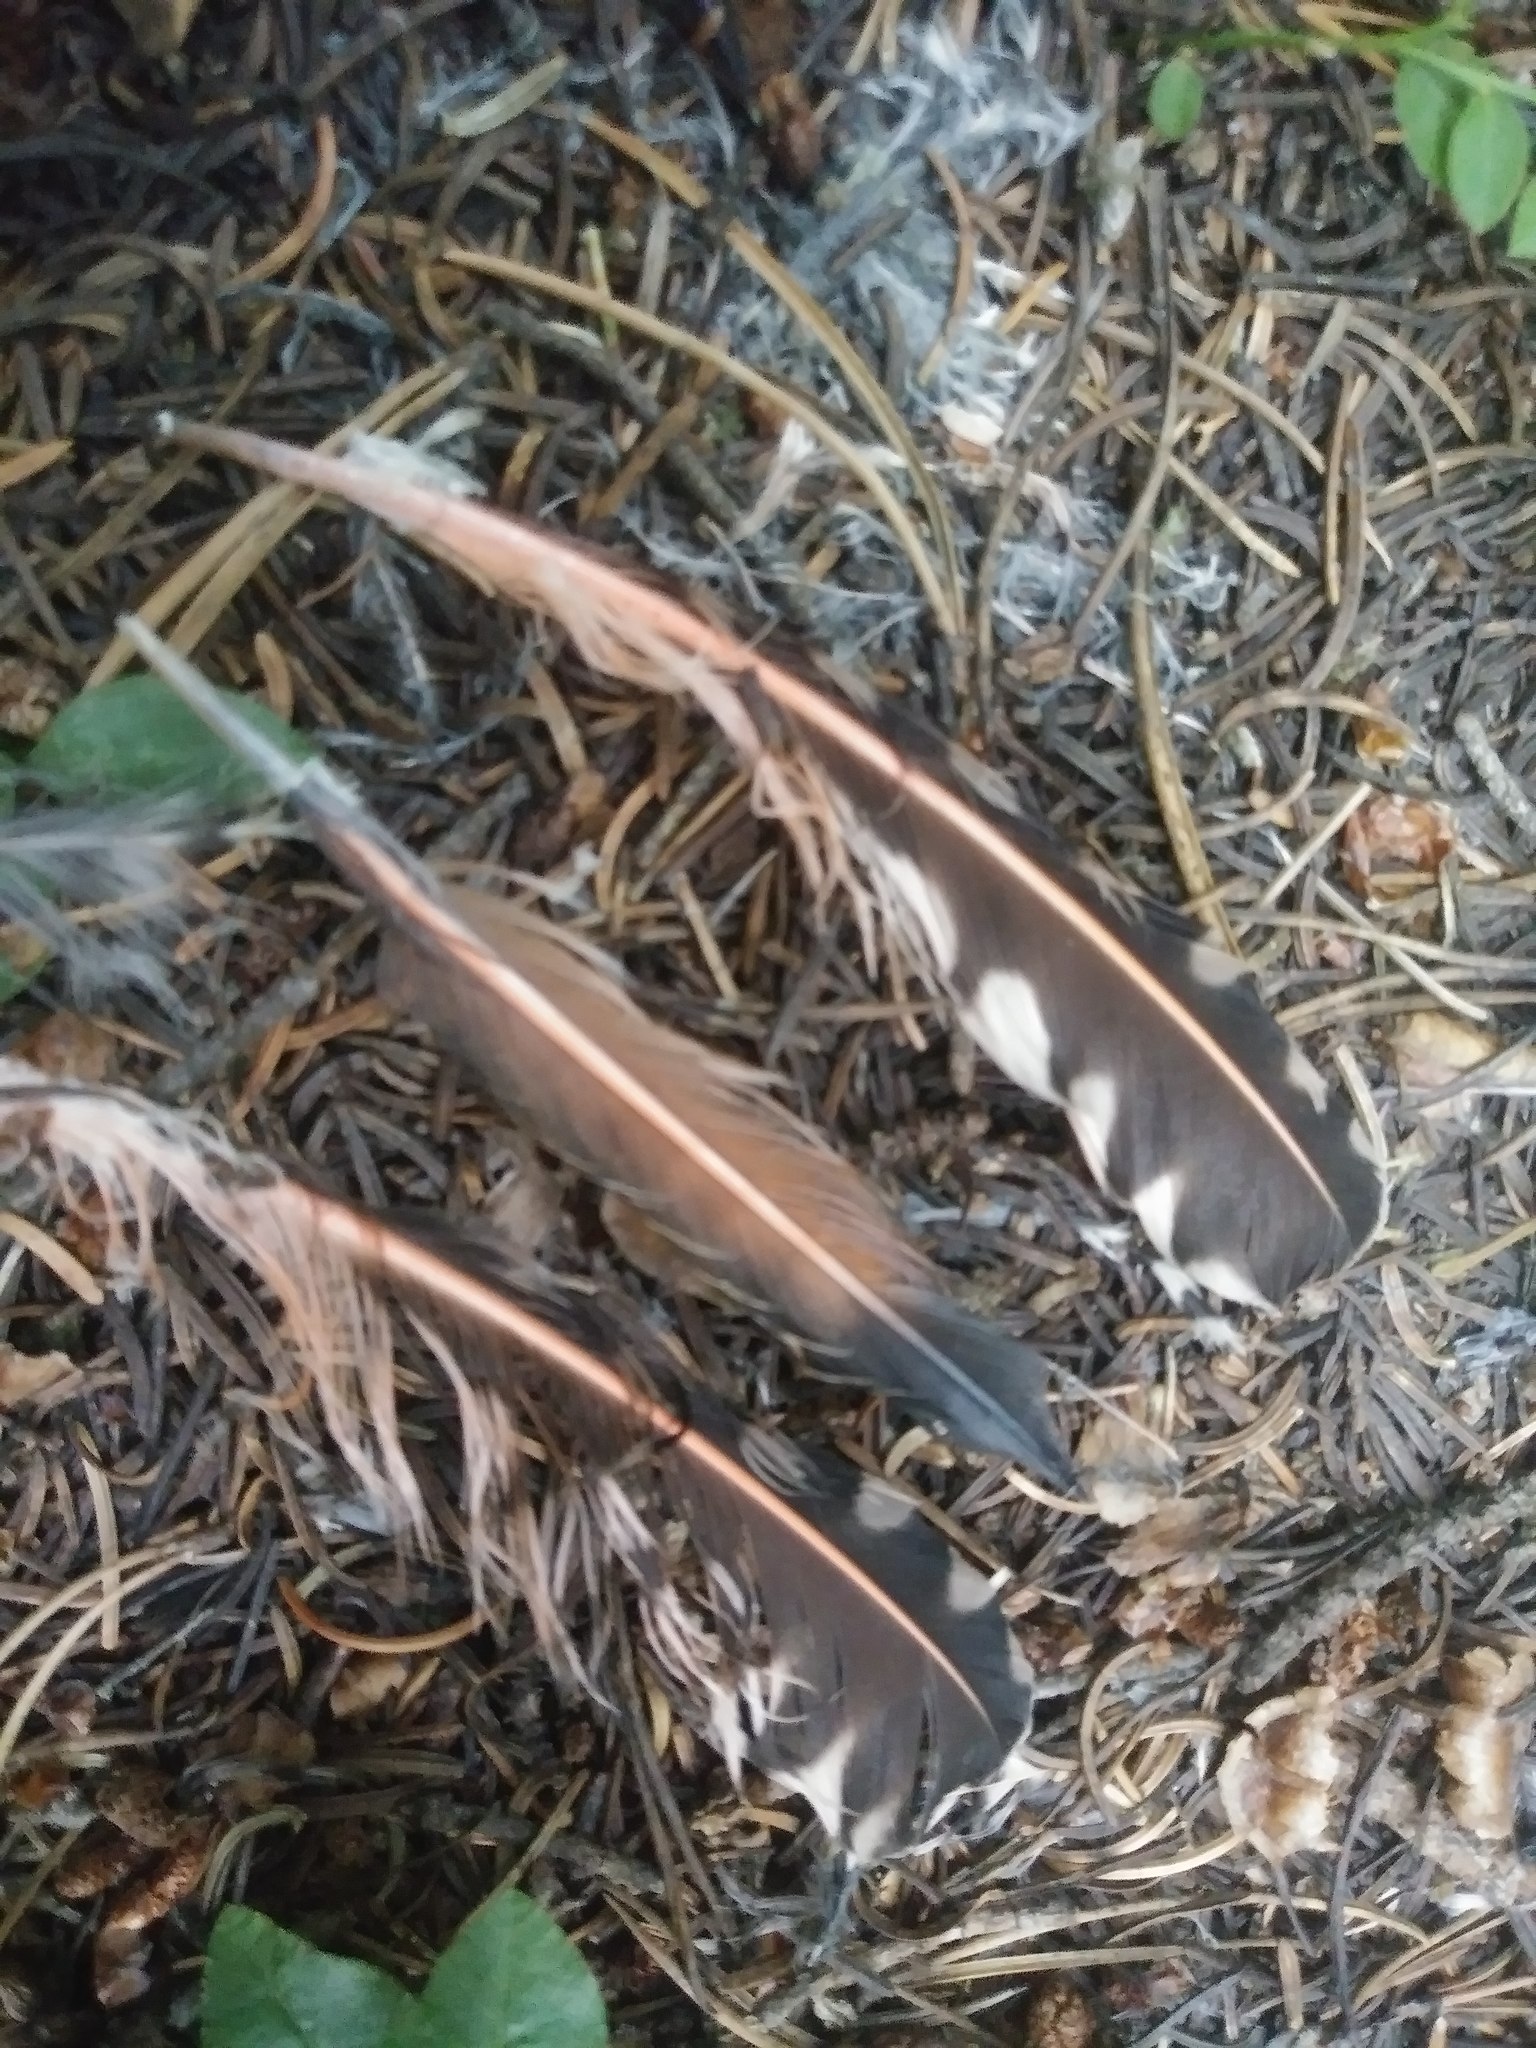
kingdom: Animalia
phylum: Chordata
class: Aves
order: Piciformes
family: Picidae
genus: Colaptes
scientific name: Colaptes auratus
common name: Northern flicker
